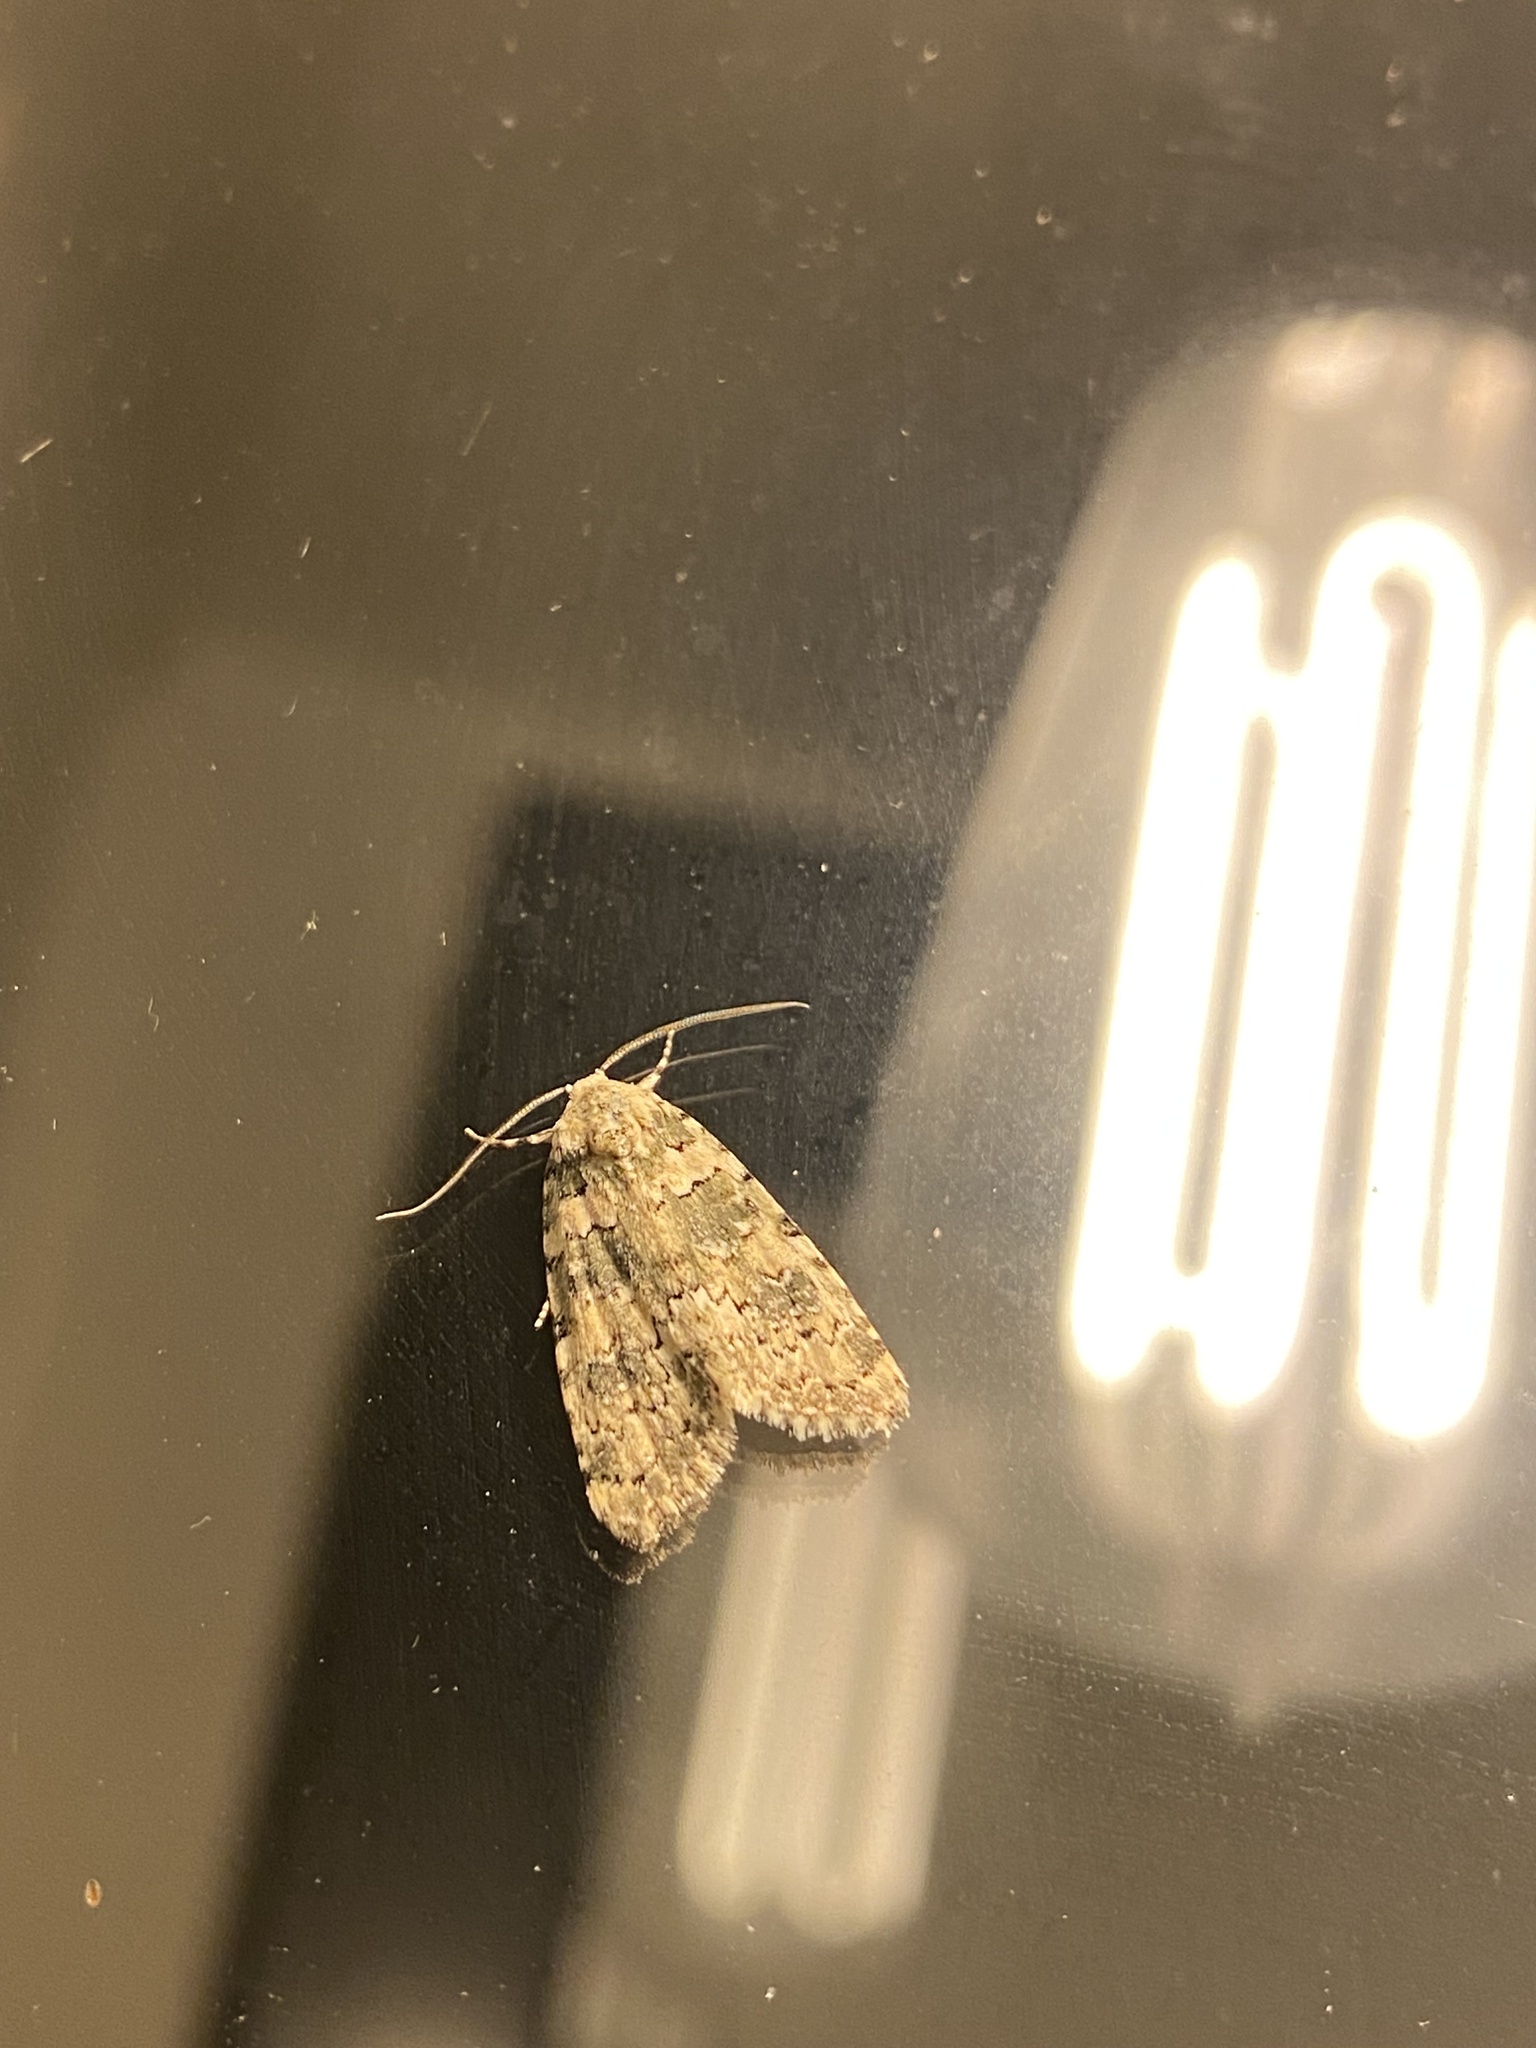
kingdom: Animalia
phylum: Arthropoda
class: Insecta
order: Lepidoptera
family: Noctuidae
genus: Bryophila
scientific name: Bryophila domestica
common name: Marbled beauty
